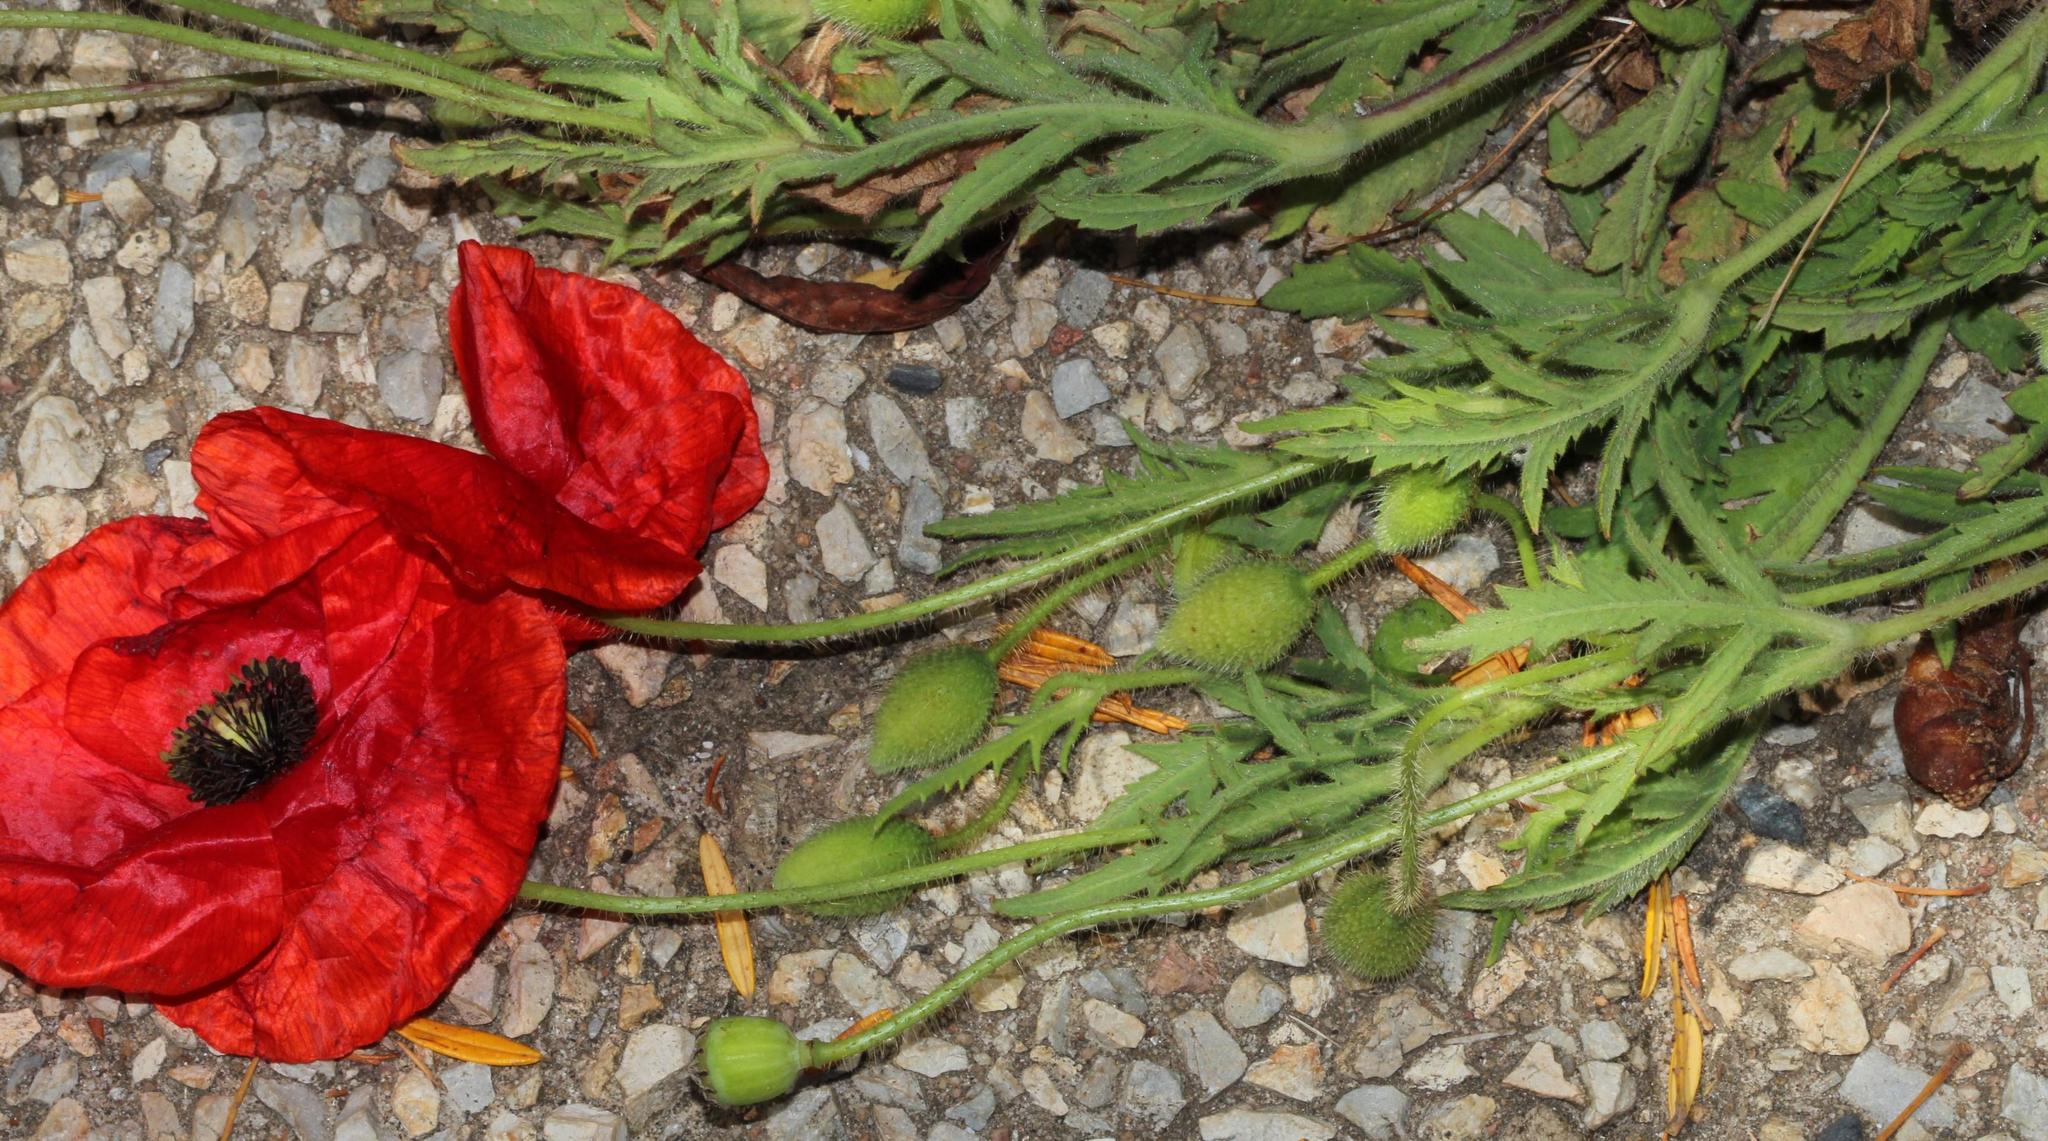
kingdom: Plantae
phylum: Tracheophyta
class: Magnoliopsida
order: Ranunculales
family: Papaveraceae
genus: Papaver
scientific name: Papaver rhoeas
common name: Corn poppy
